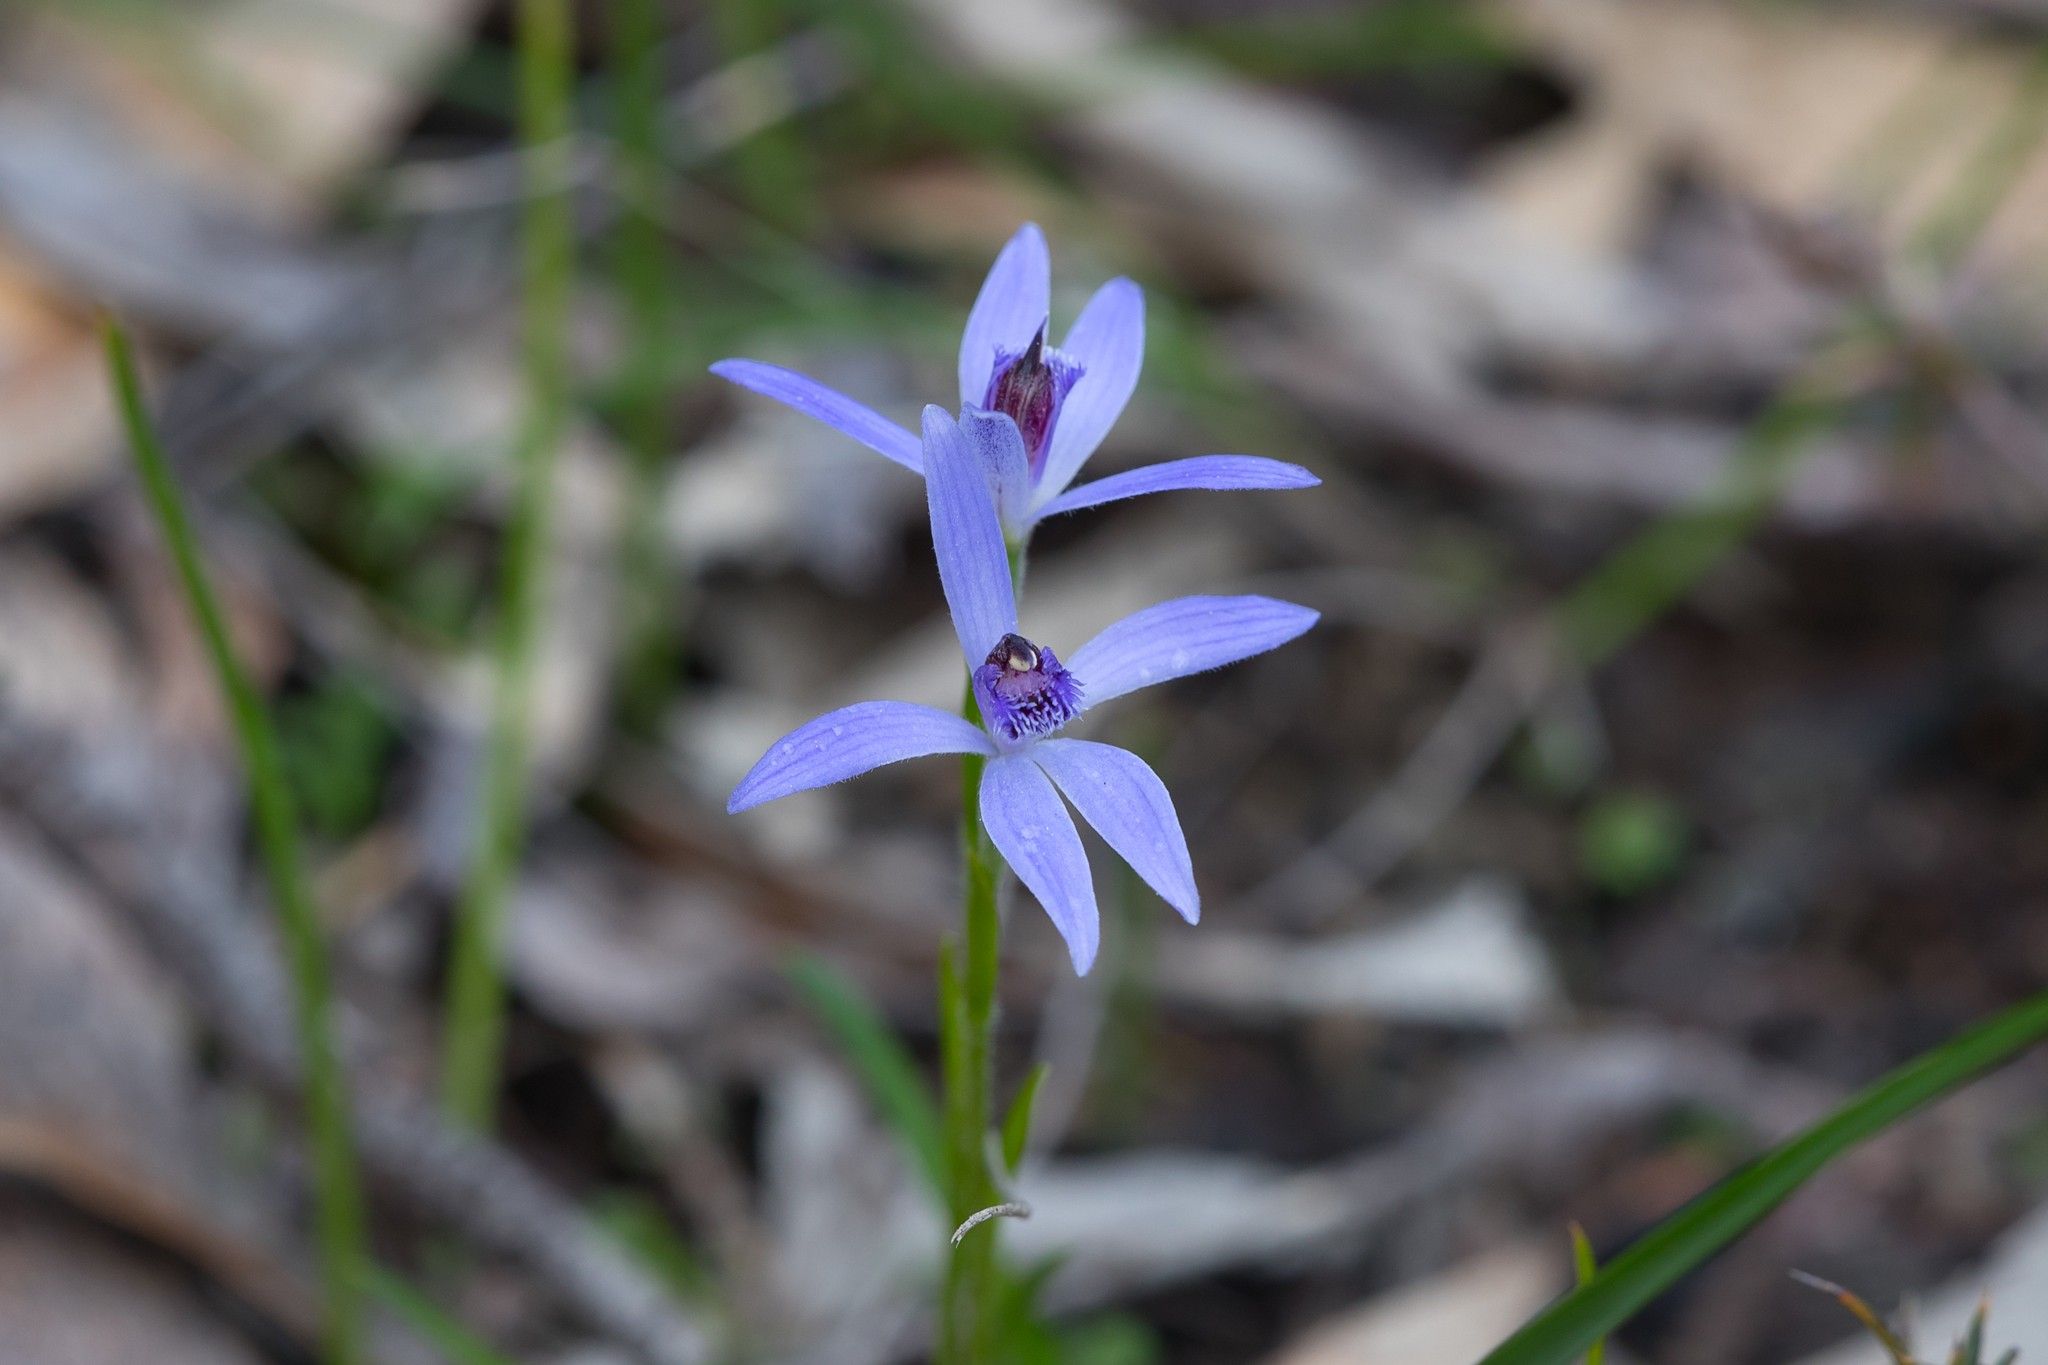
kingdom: Plantae
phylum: Tracheophyta
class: Liliopsida
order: Asparagales
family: Orchidaceae
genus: Pheladenia
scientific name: Pheladenia deformis
